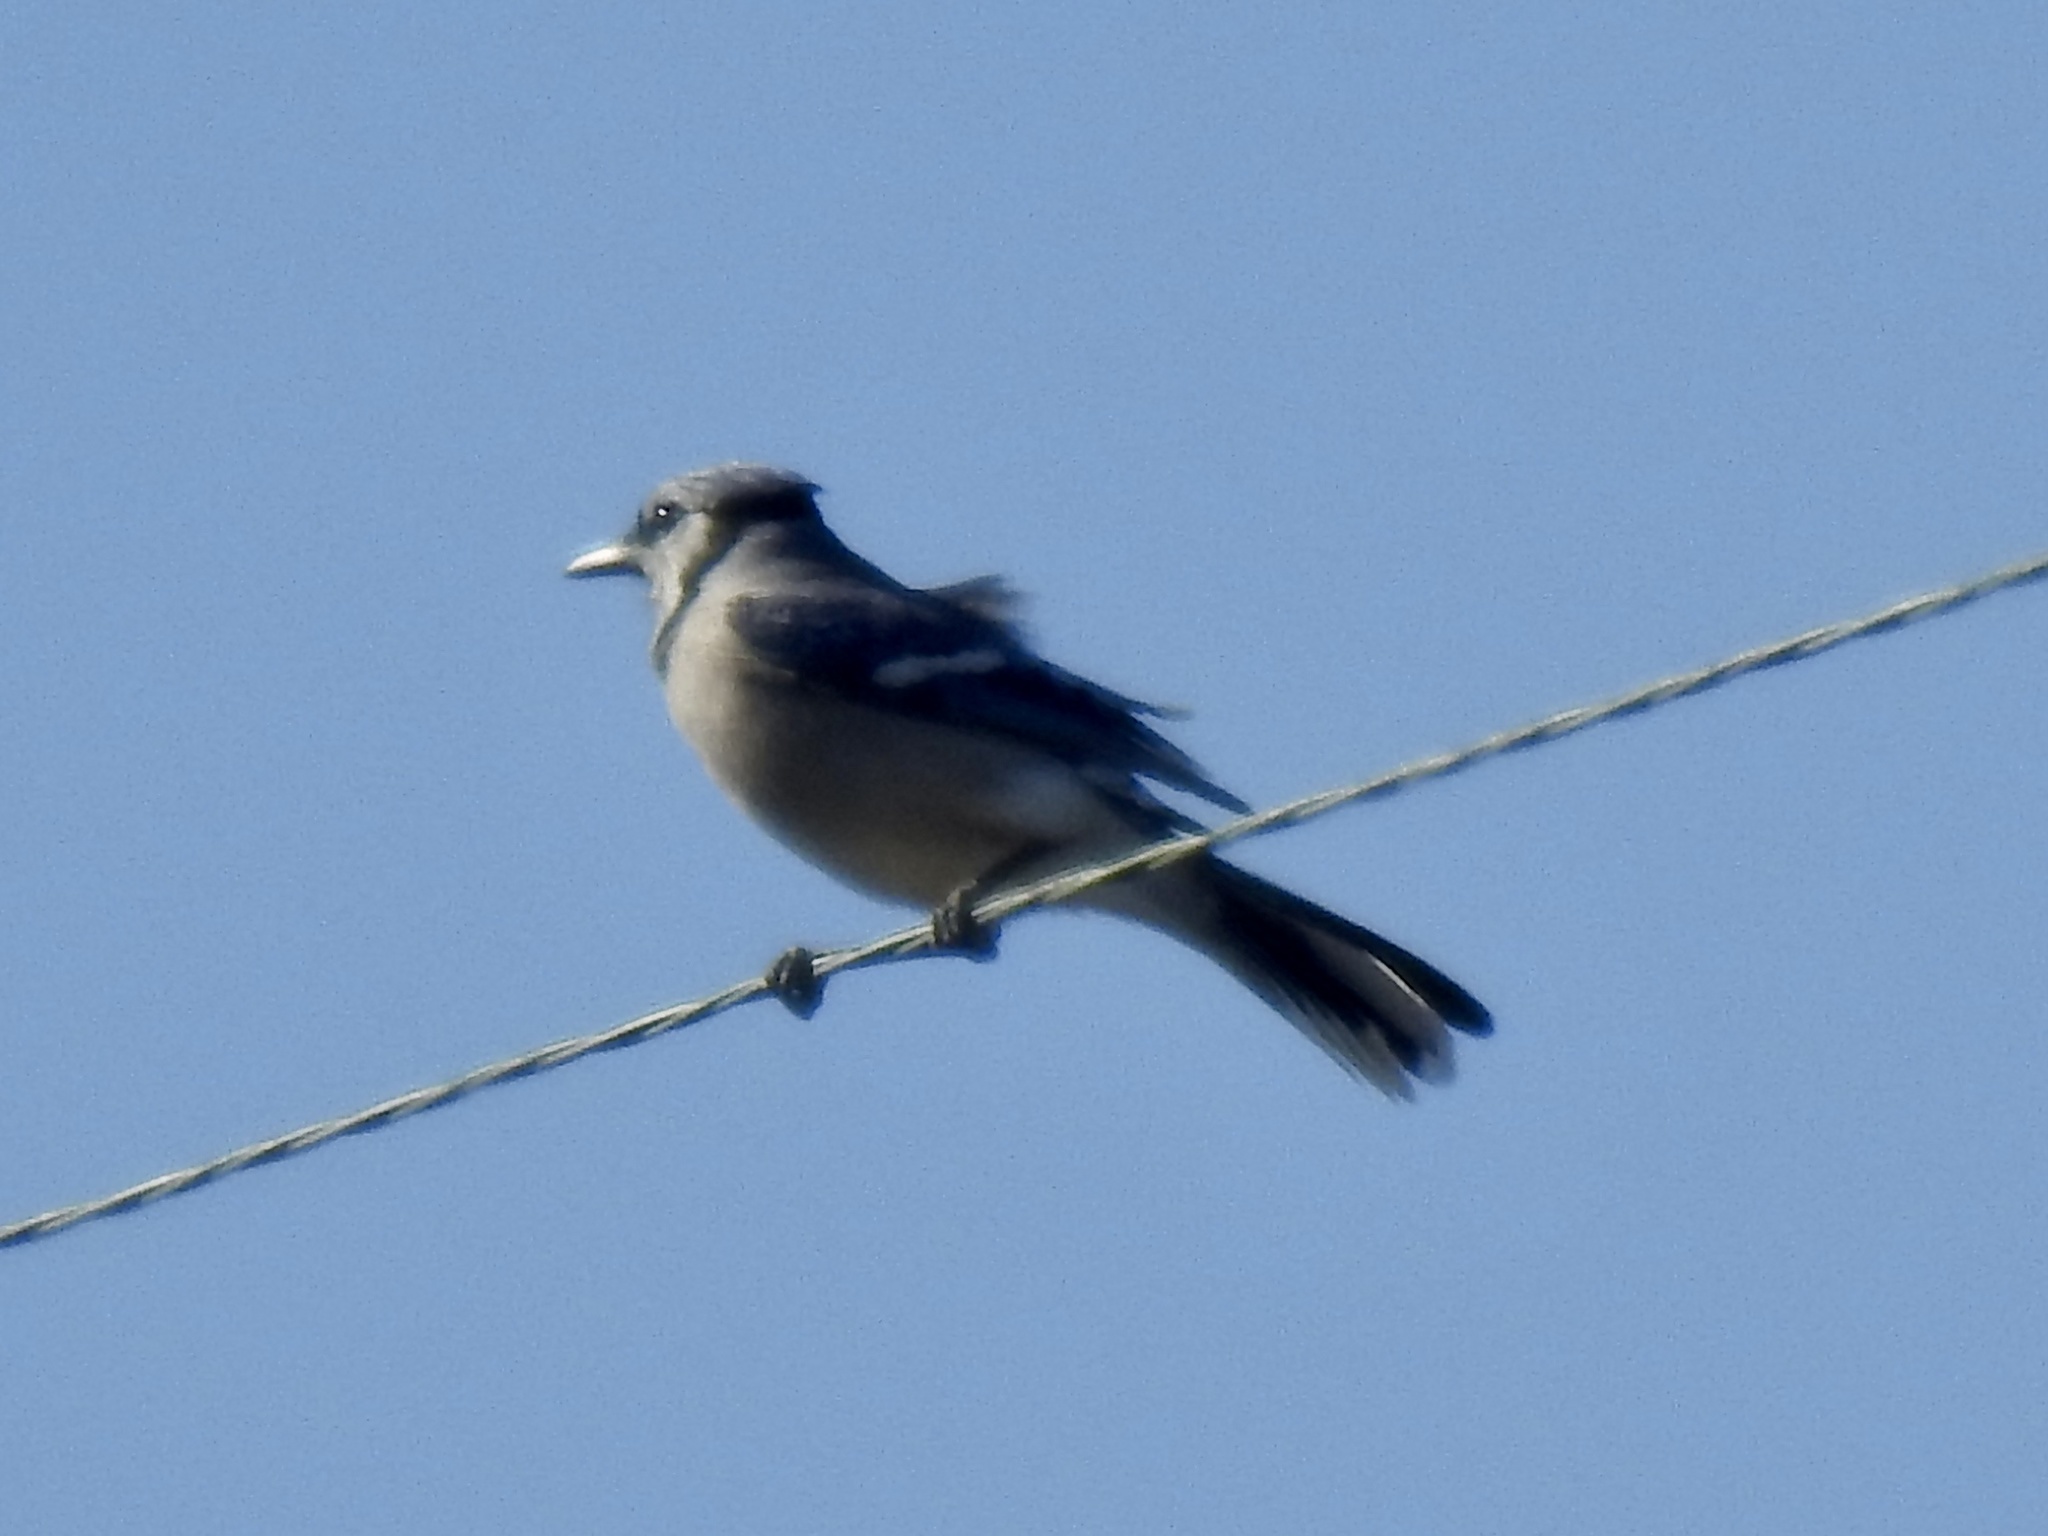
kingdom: Animalia
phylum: Chordata
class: Aves
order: Passeriformes
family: Corvidae
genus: Cyanocitta
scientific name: Cyanocitta cristata
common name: Blue jay
